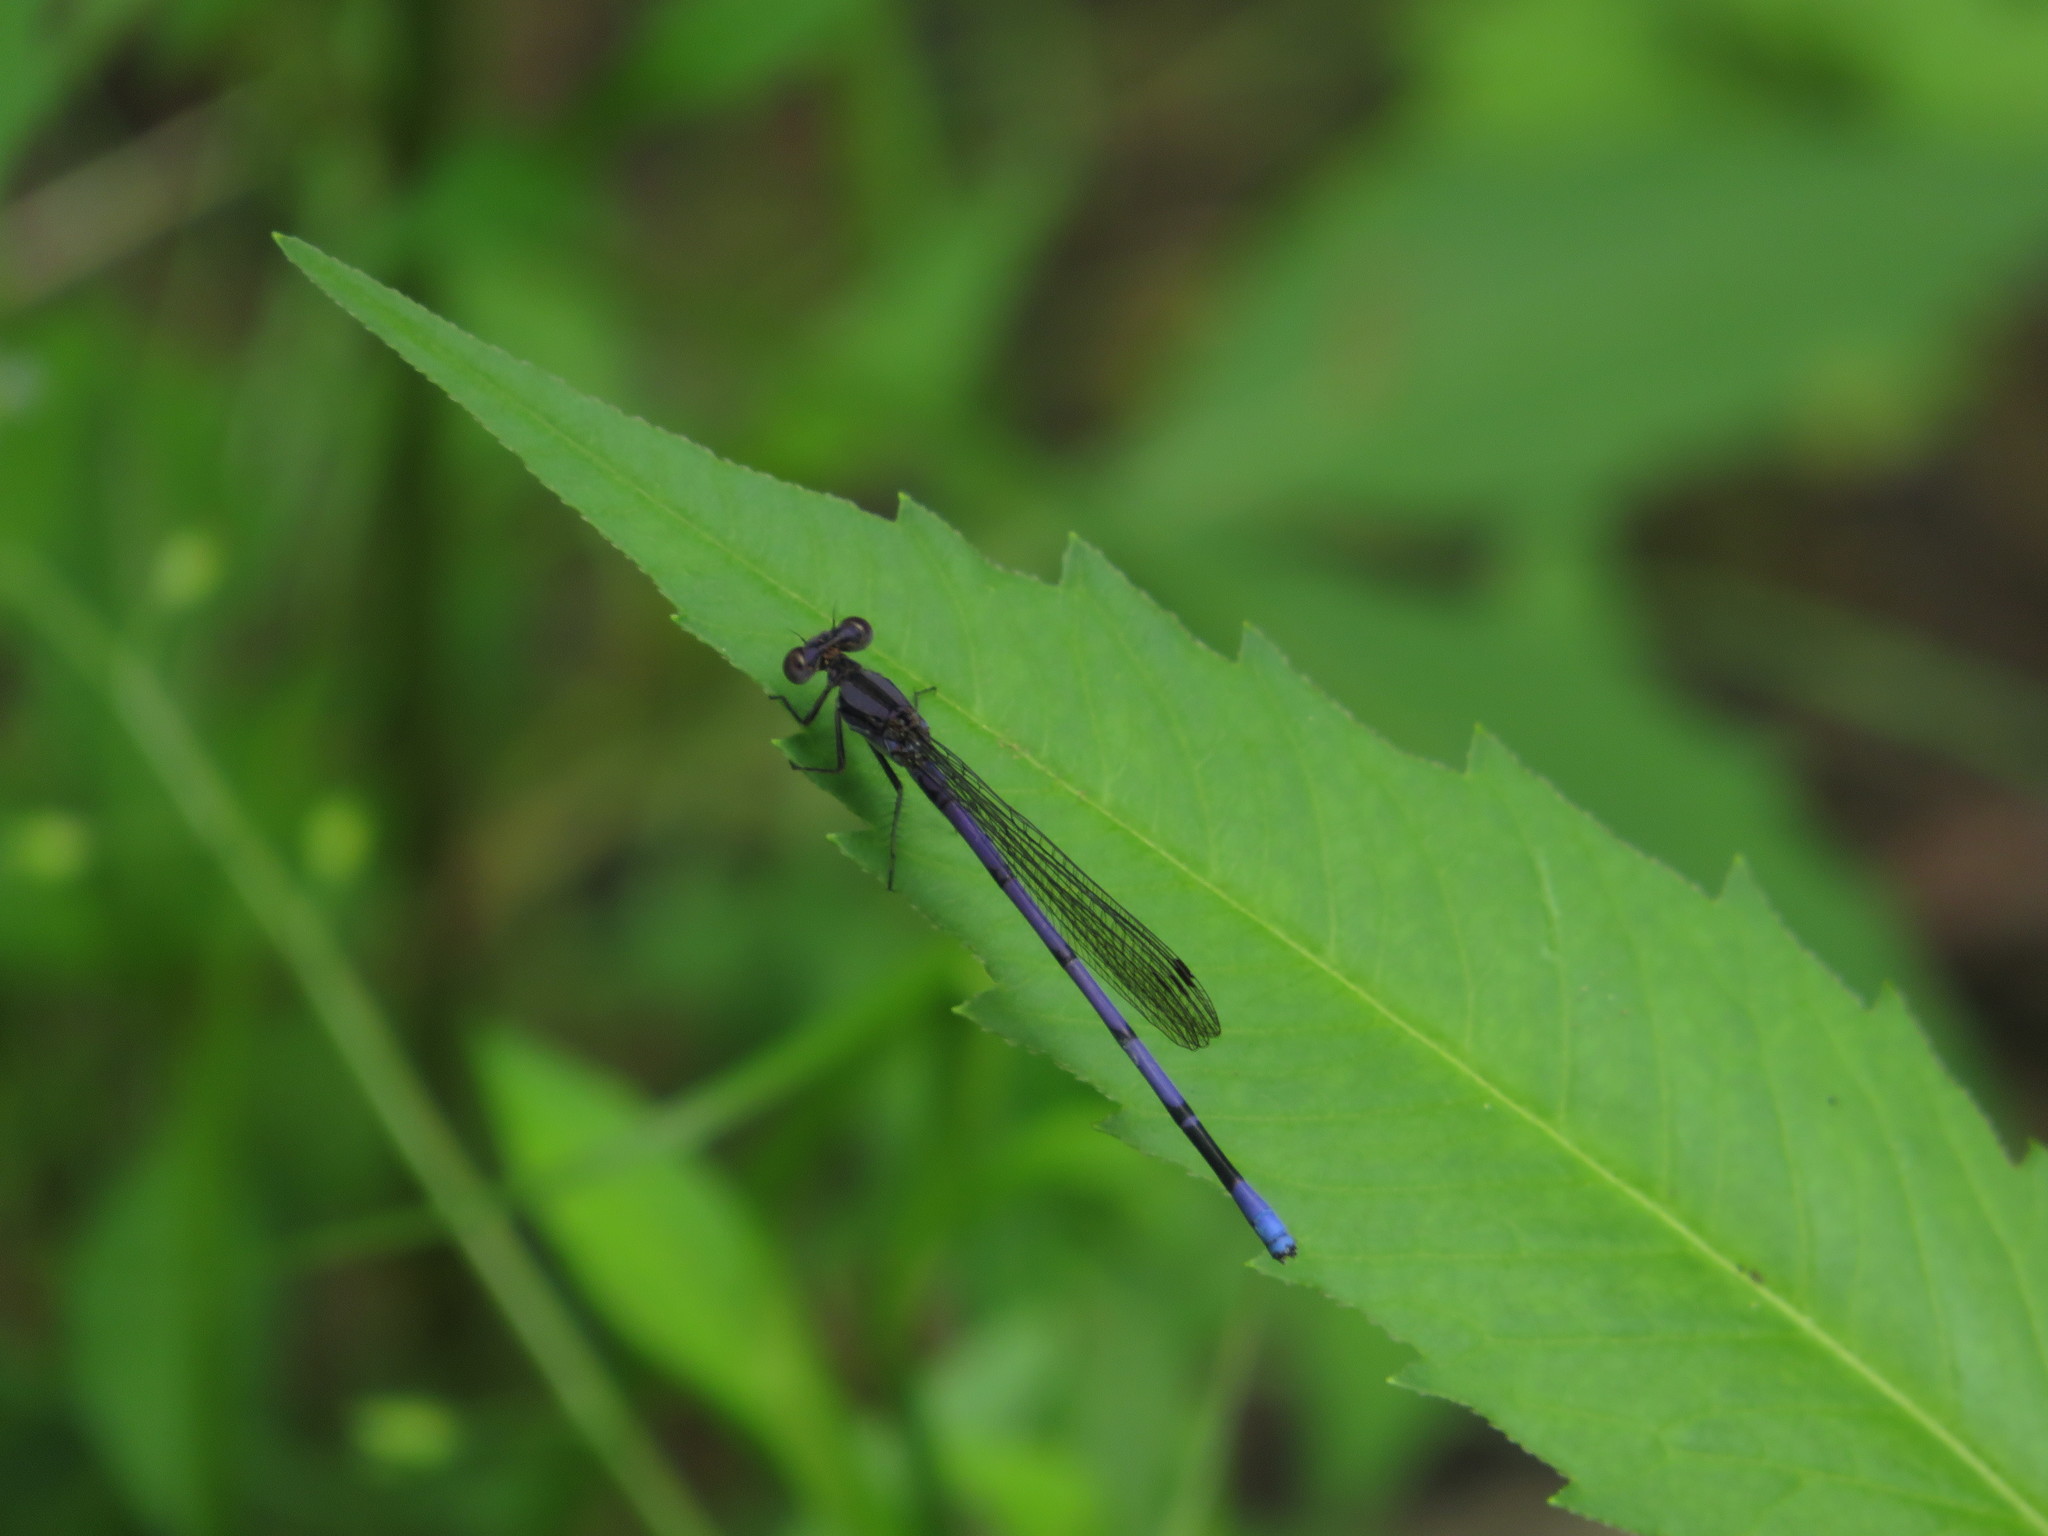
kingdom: Animalia
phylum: Arthropoda
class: Insecta
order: Odonata
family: Coenagrionidae
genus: Argia
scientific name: Argia fumipennis
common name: Variable dancer
